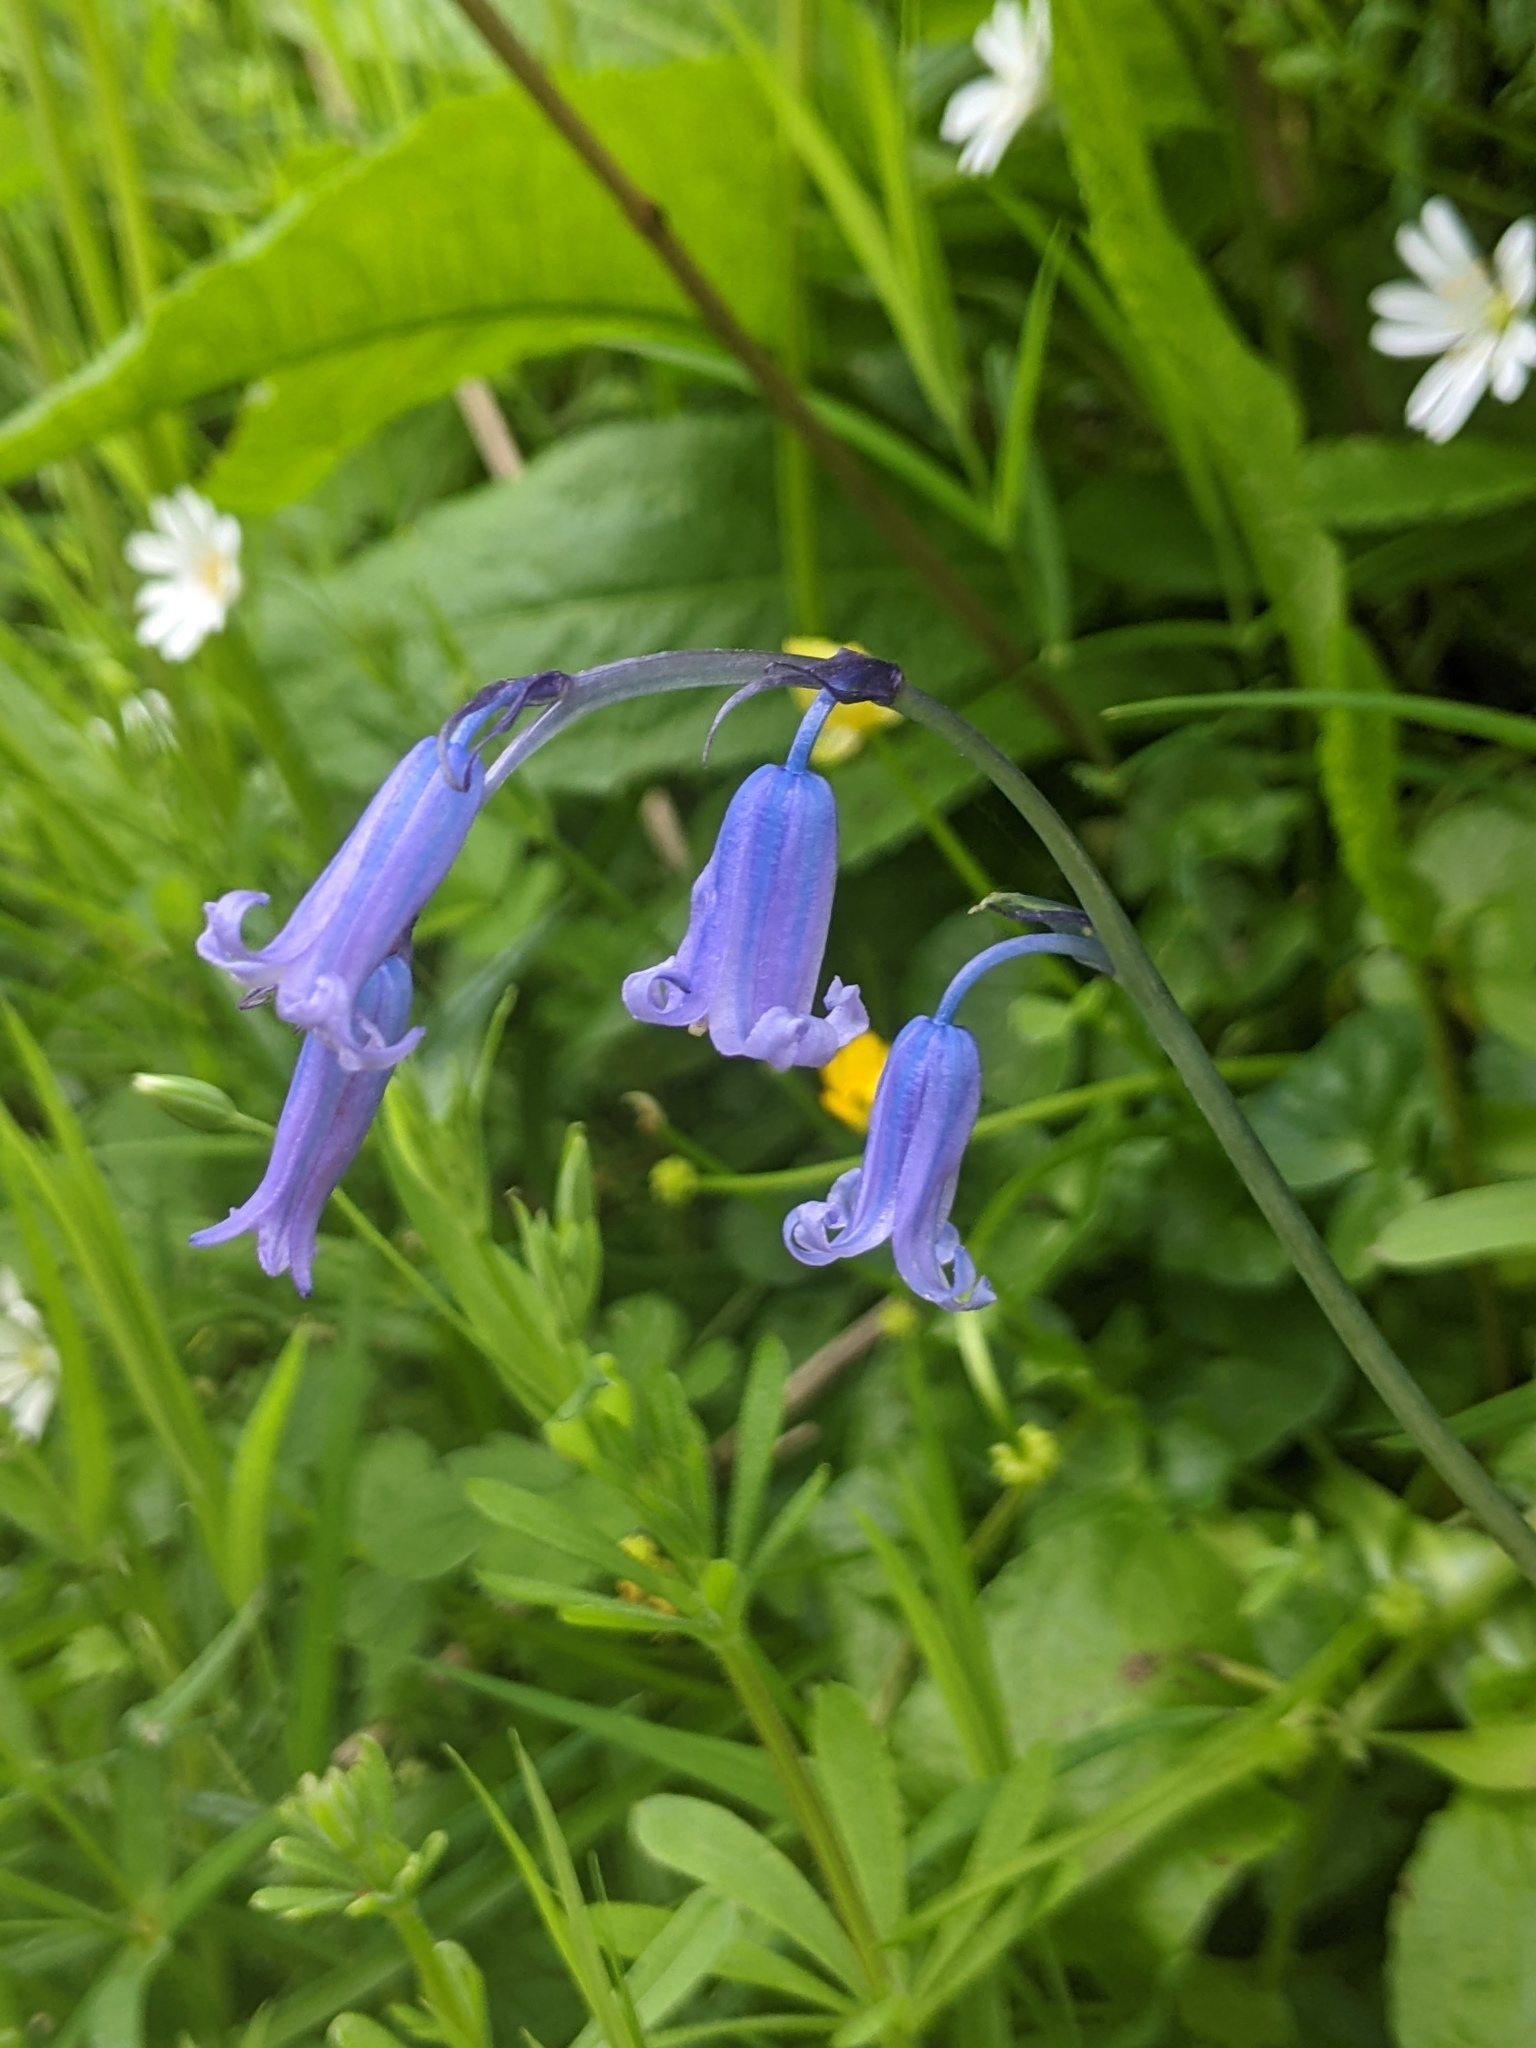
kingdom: Plantae
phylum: Tracheophyta
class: Liliopsida
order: Asparagales
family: Asparagaceae
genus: Hyacinthoides
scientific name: Hyacinthoides non-scripta
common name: Bluebell
